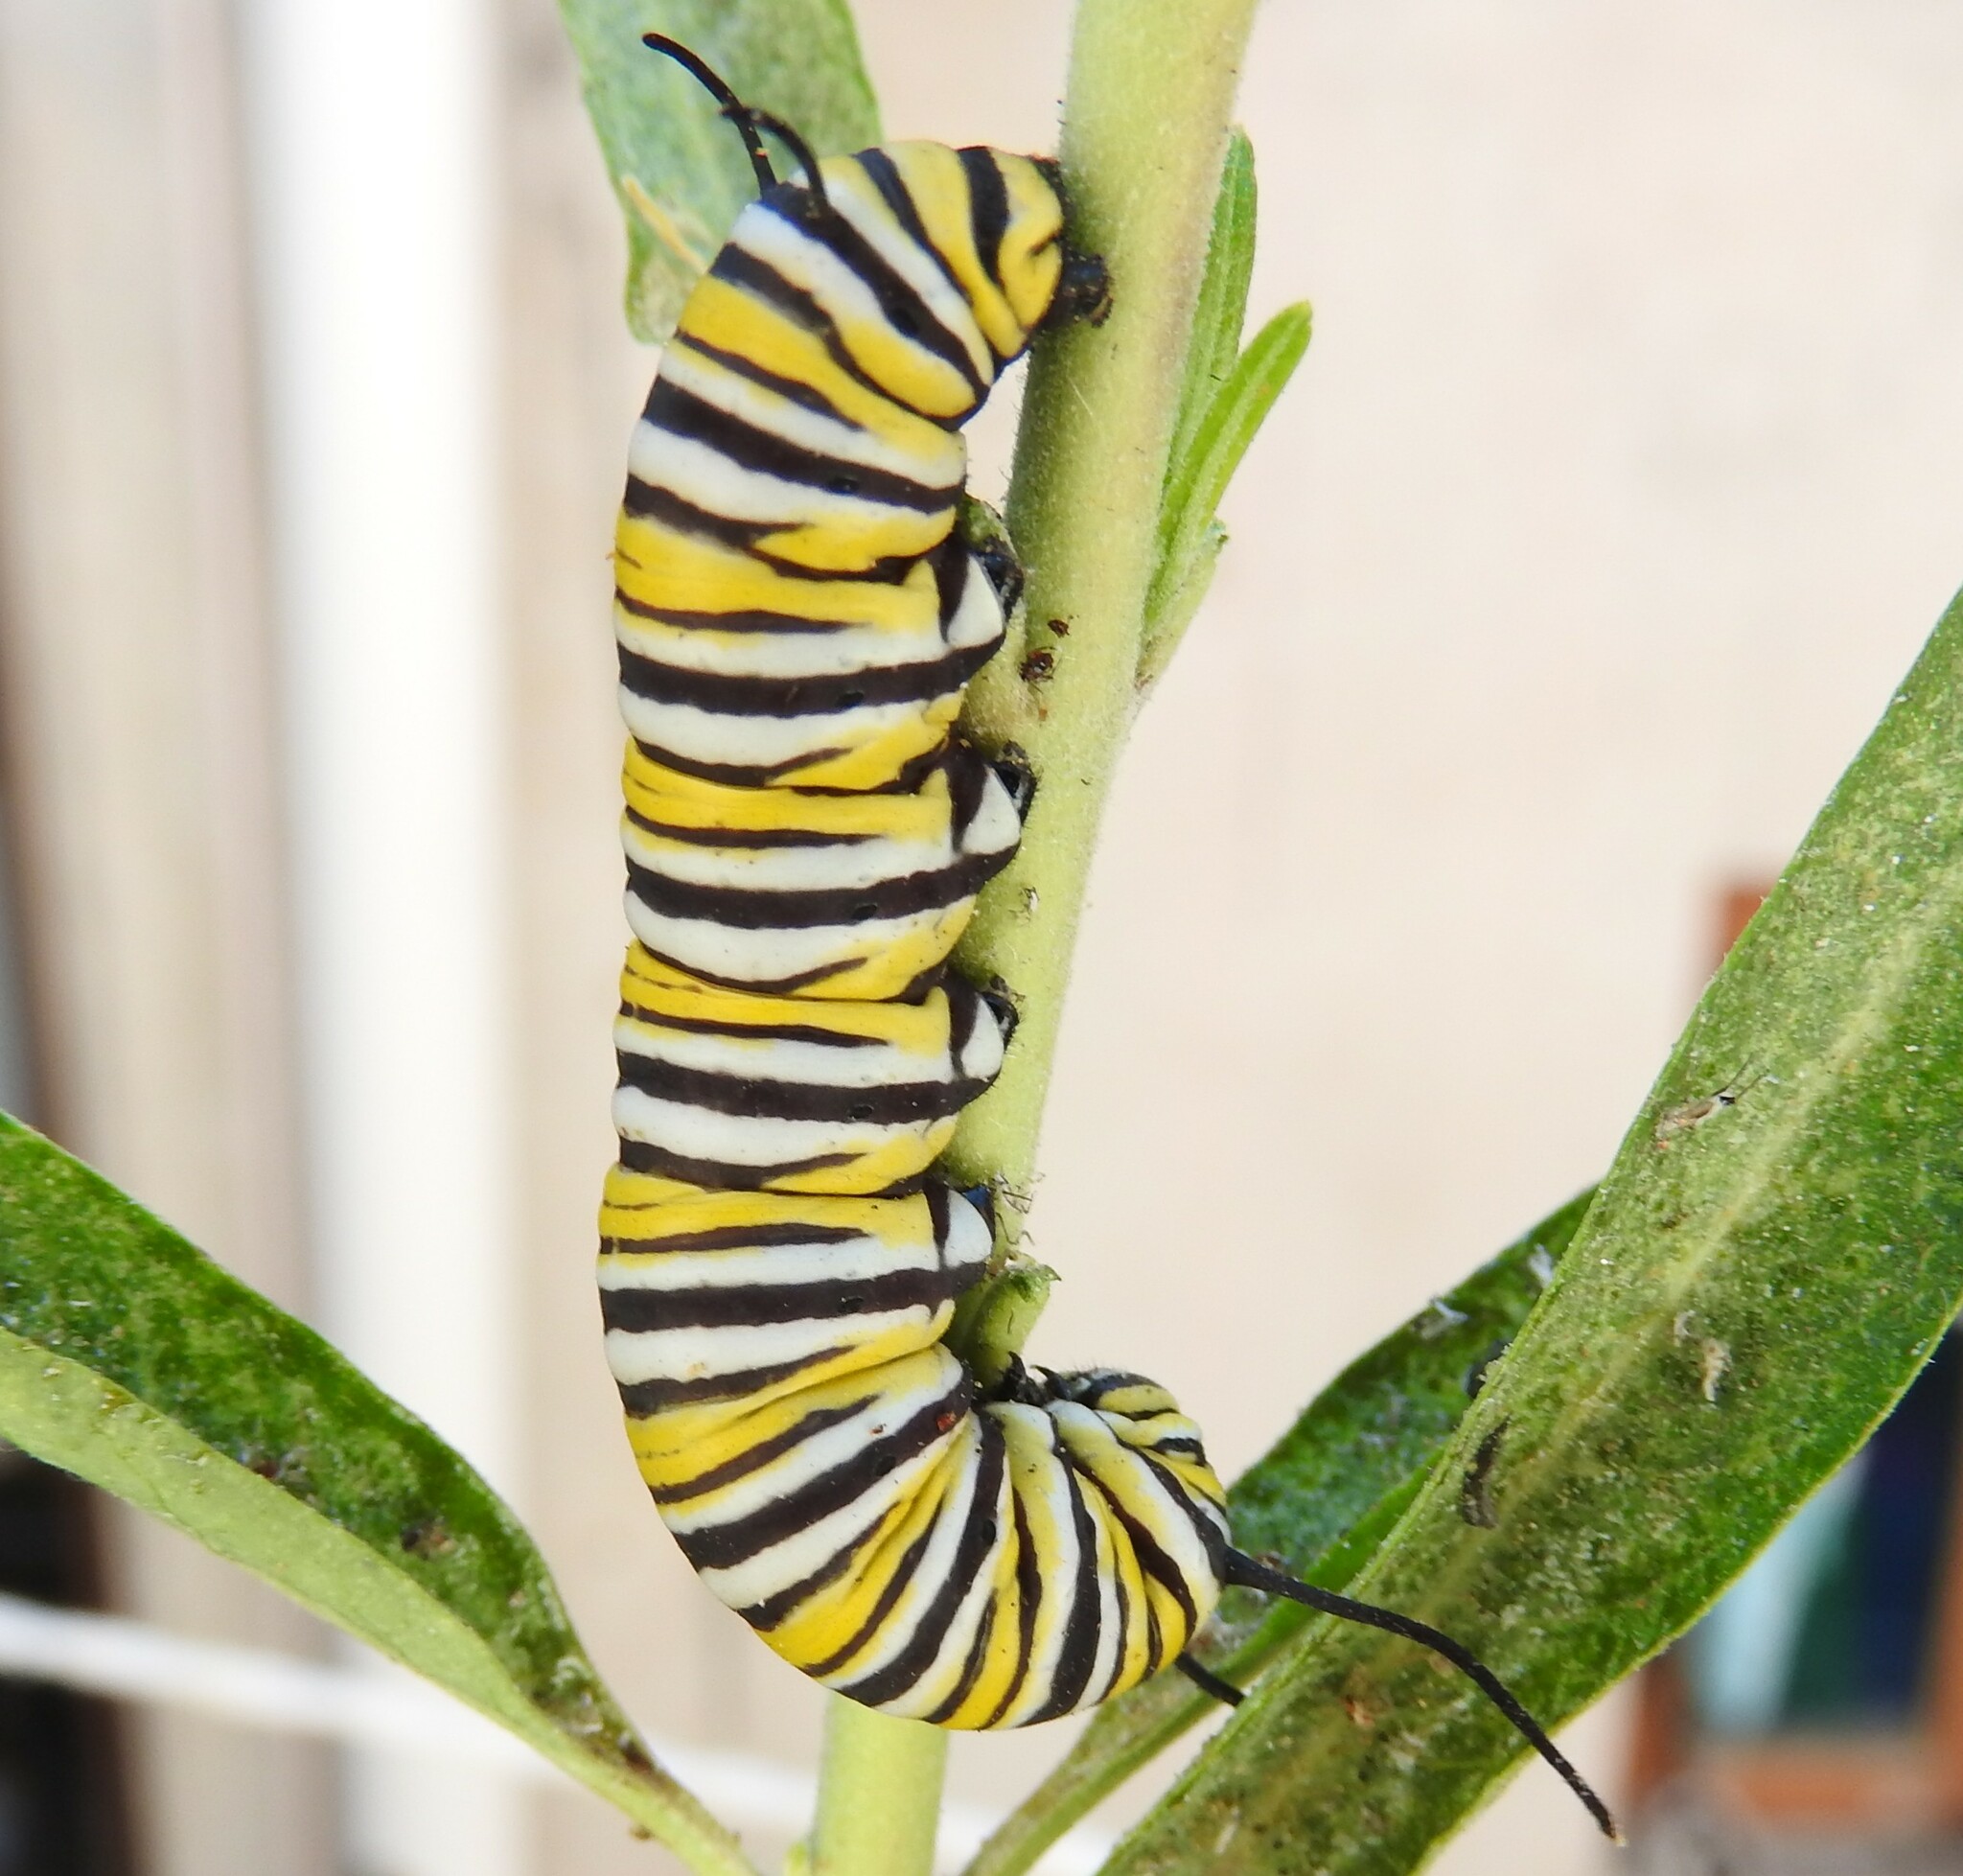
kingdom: Animalia
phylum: Arthropoda
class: Insecta
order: Lepidoptera
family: Nymphalidae
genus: Danaus
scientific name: Danaus plexippus
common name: Monarch
